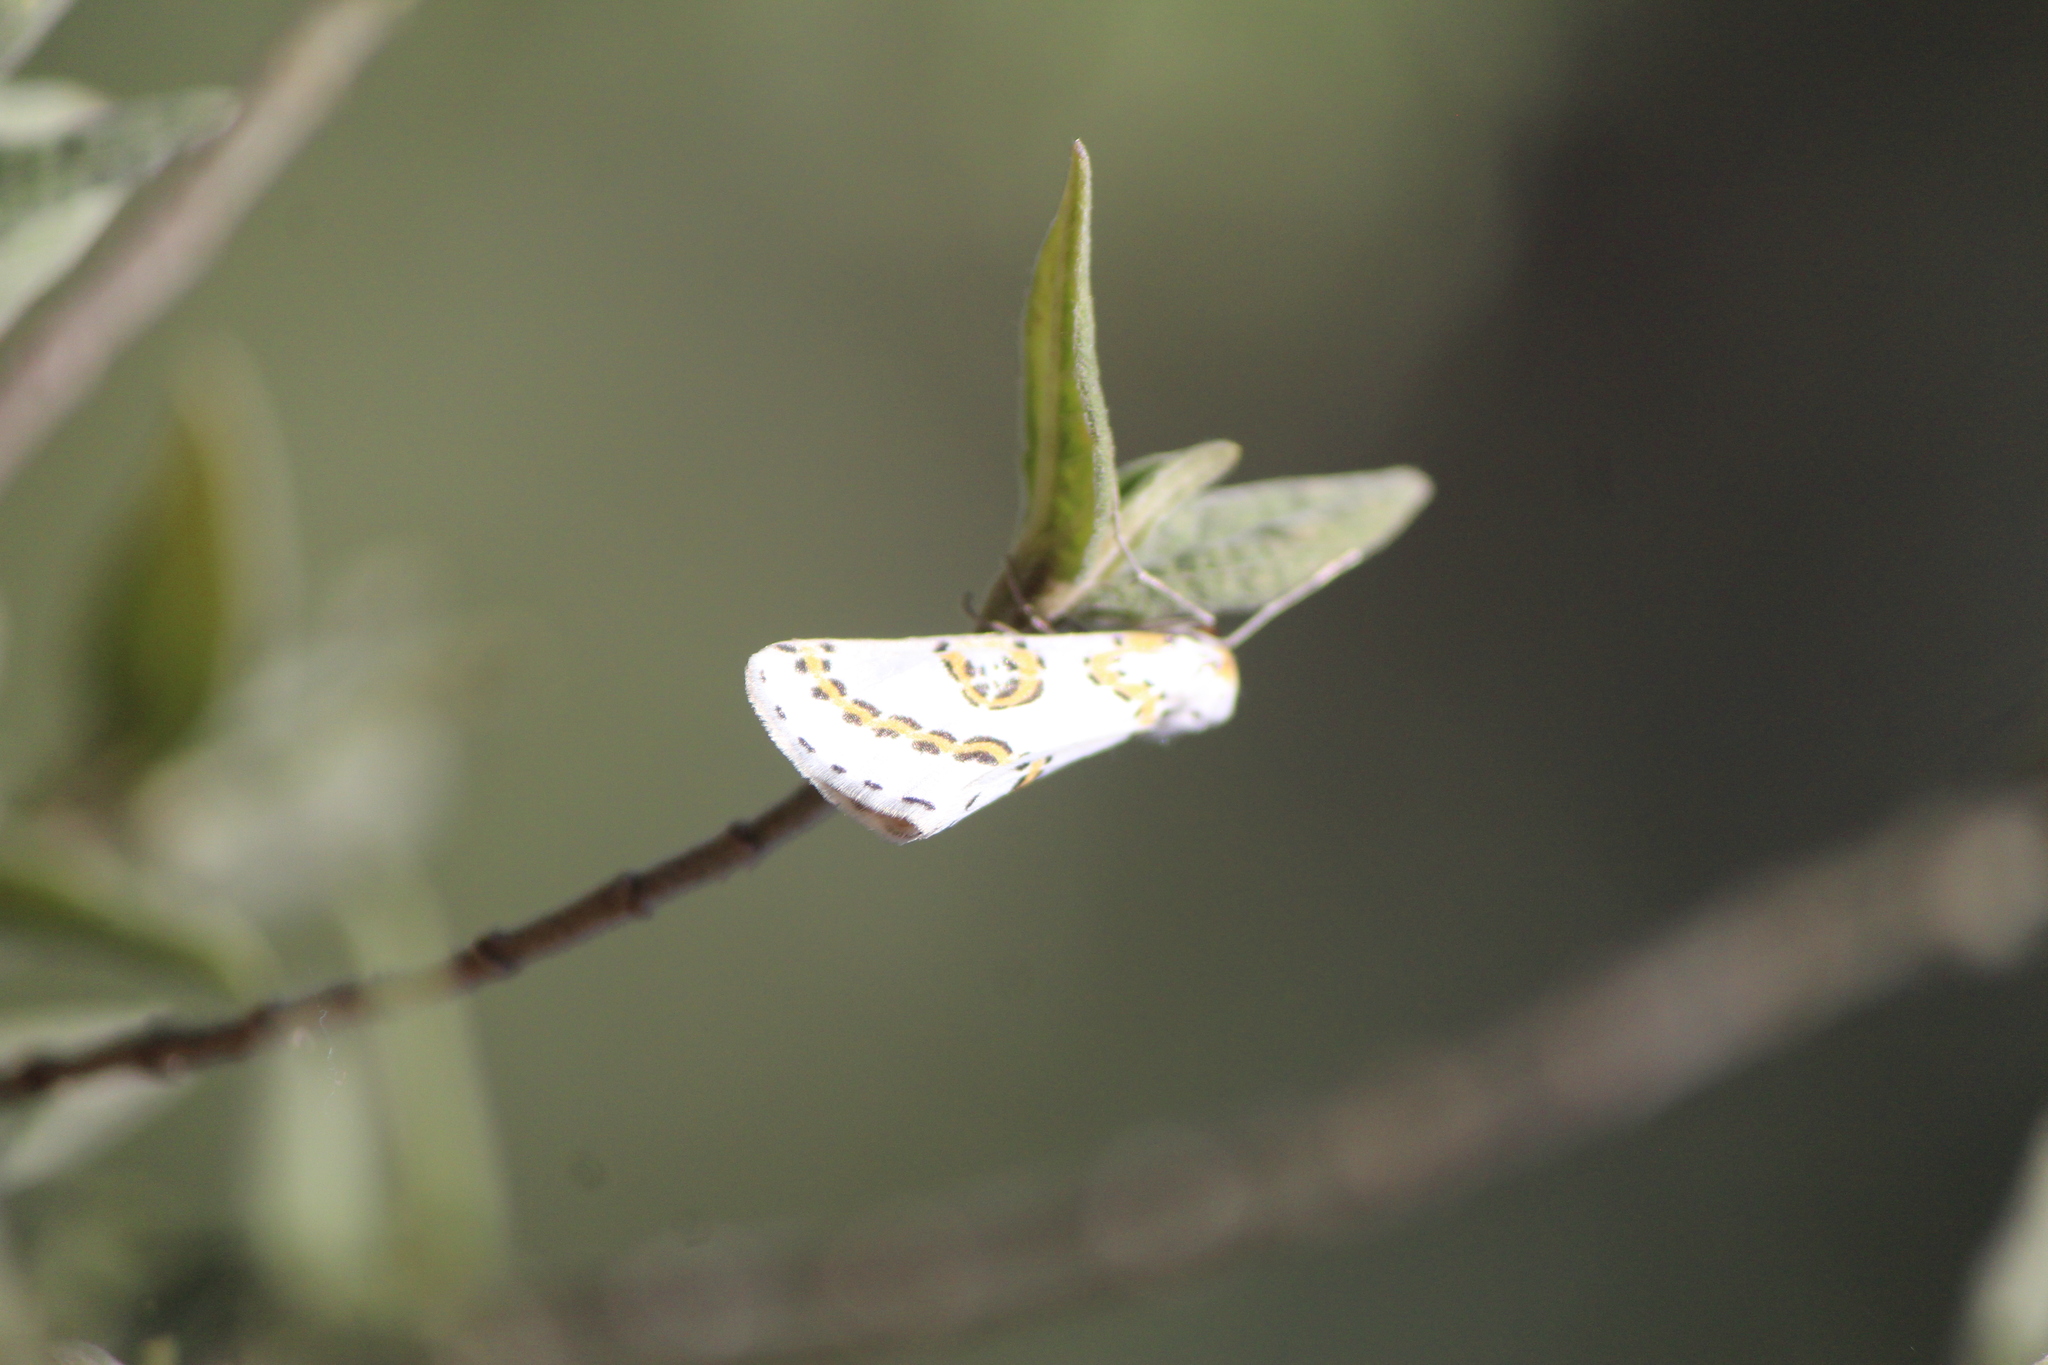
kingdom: Animalia
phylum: Arthropoda
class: Insecta
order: Lepidoptera
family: Geometridae
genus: Philtraea
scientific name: Philtraea mexicana
